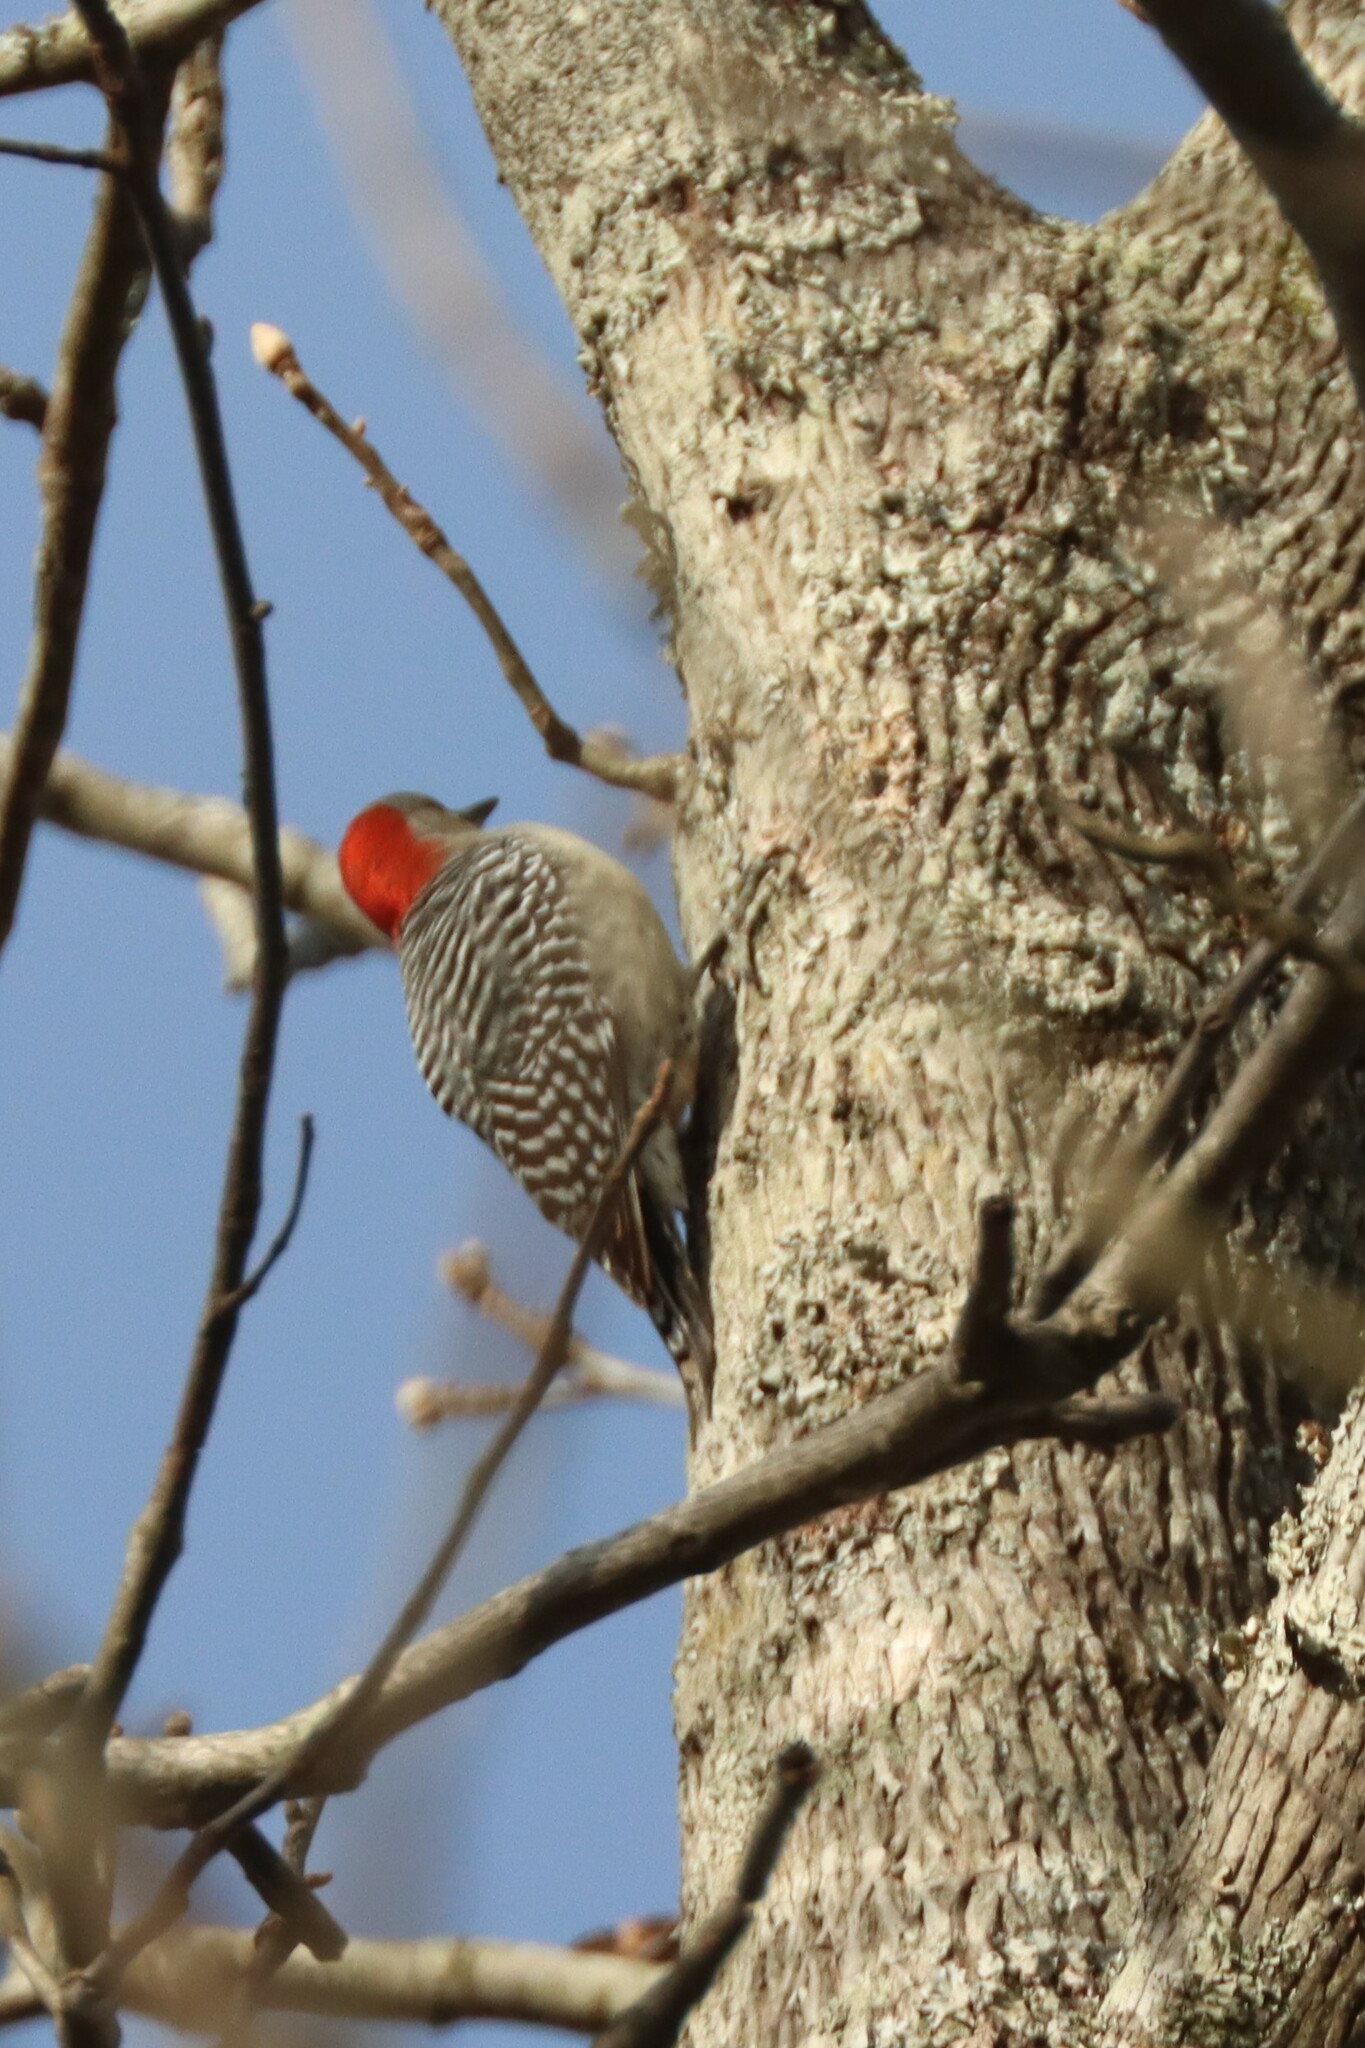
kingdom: Animalia
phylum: Chordata
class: Aves
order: Piciformes
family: Picidae
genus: Melanerpes
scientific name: Melanerpes carolinus
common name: Red-bellied woodpecker
